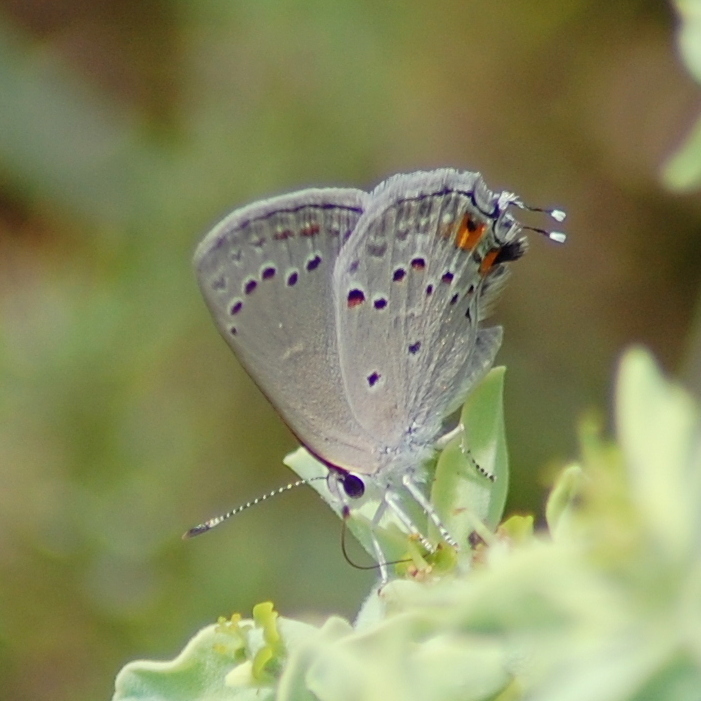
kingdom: Animalia
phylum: Arthropoda
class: Insecta
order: Lepidoptera
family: Lycaenidae
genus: Strymon
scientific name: Strymon eurytulus
